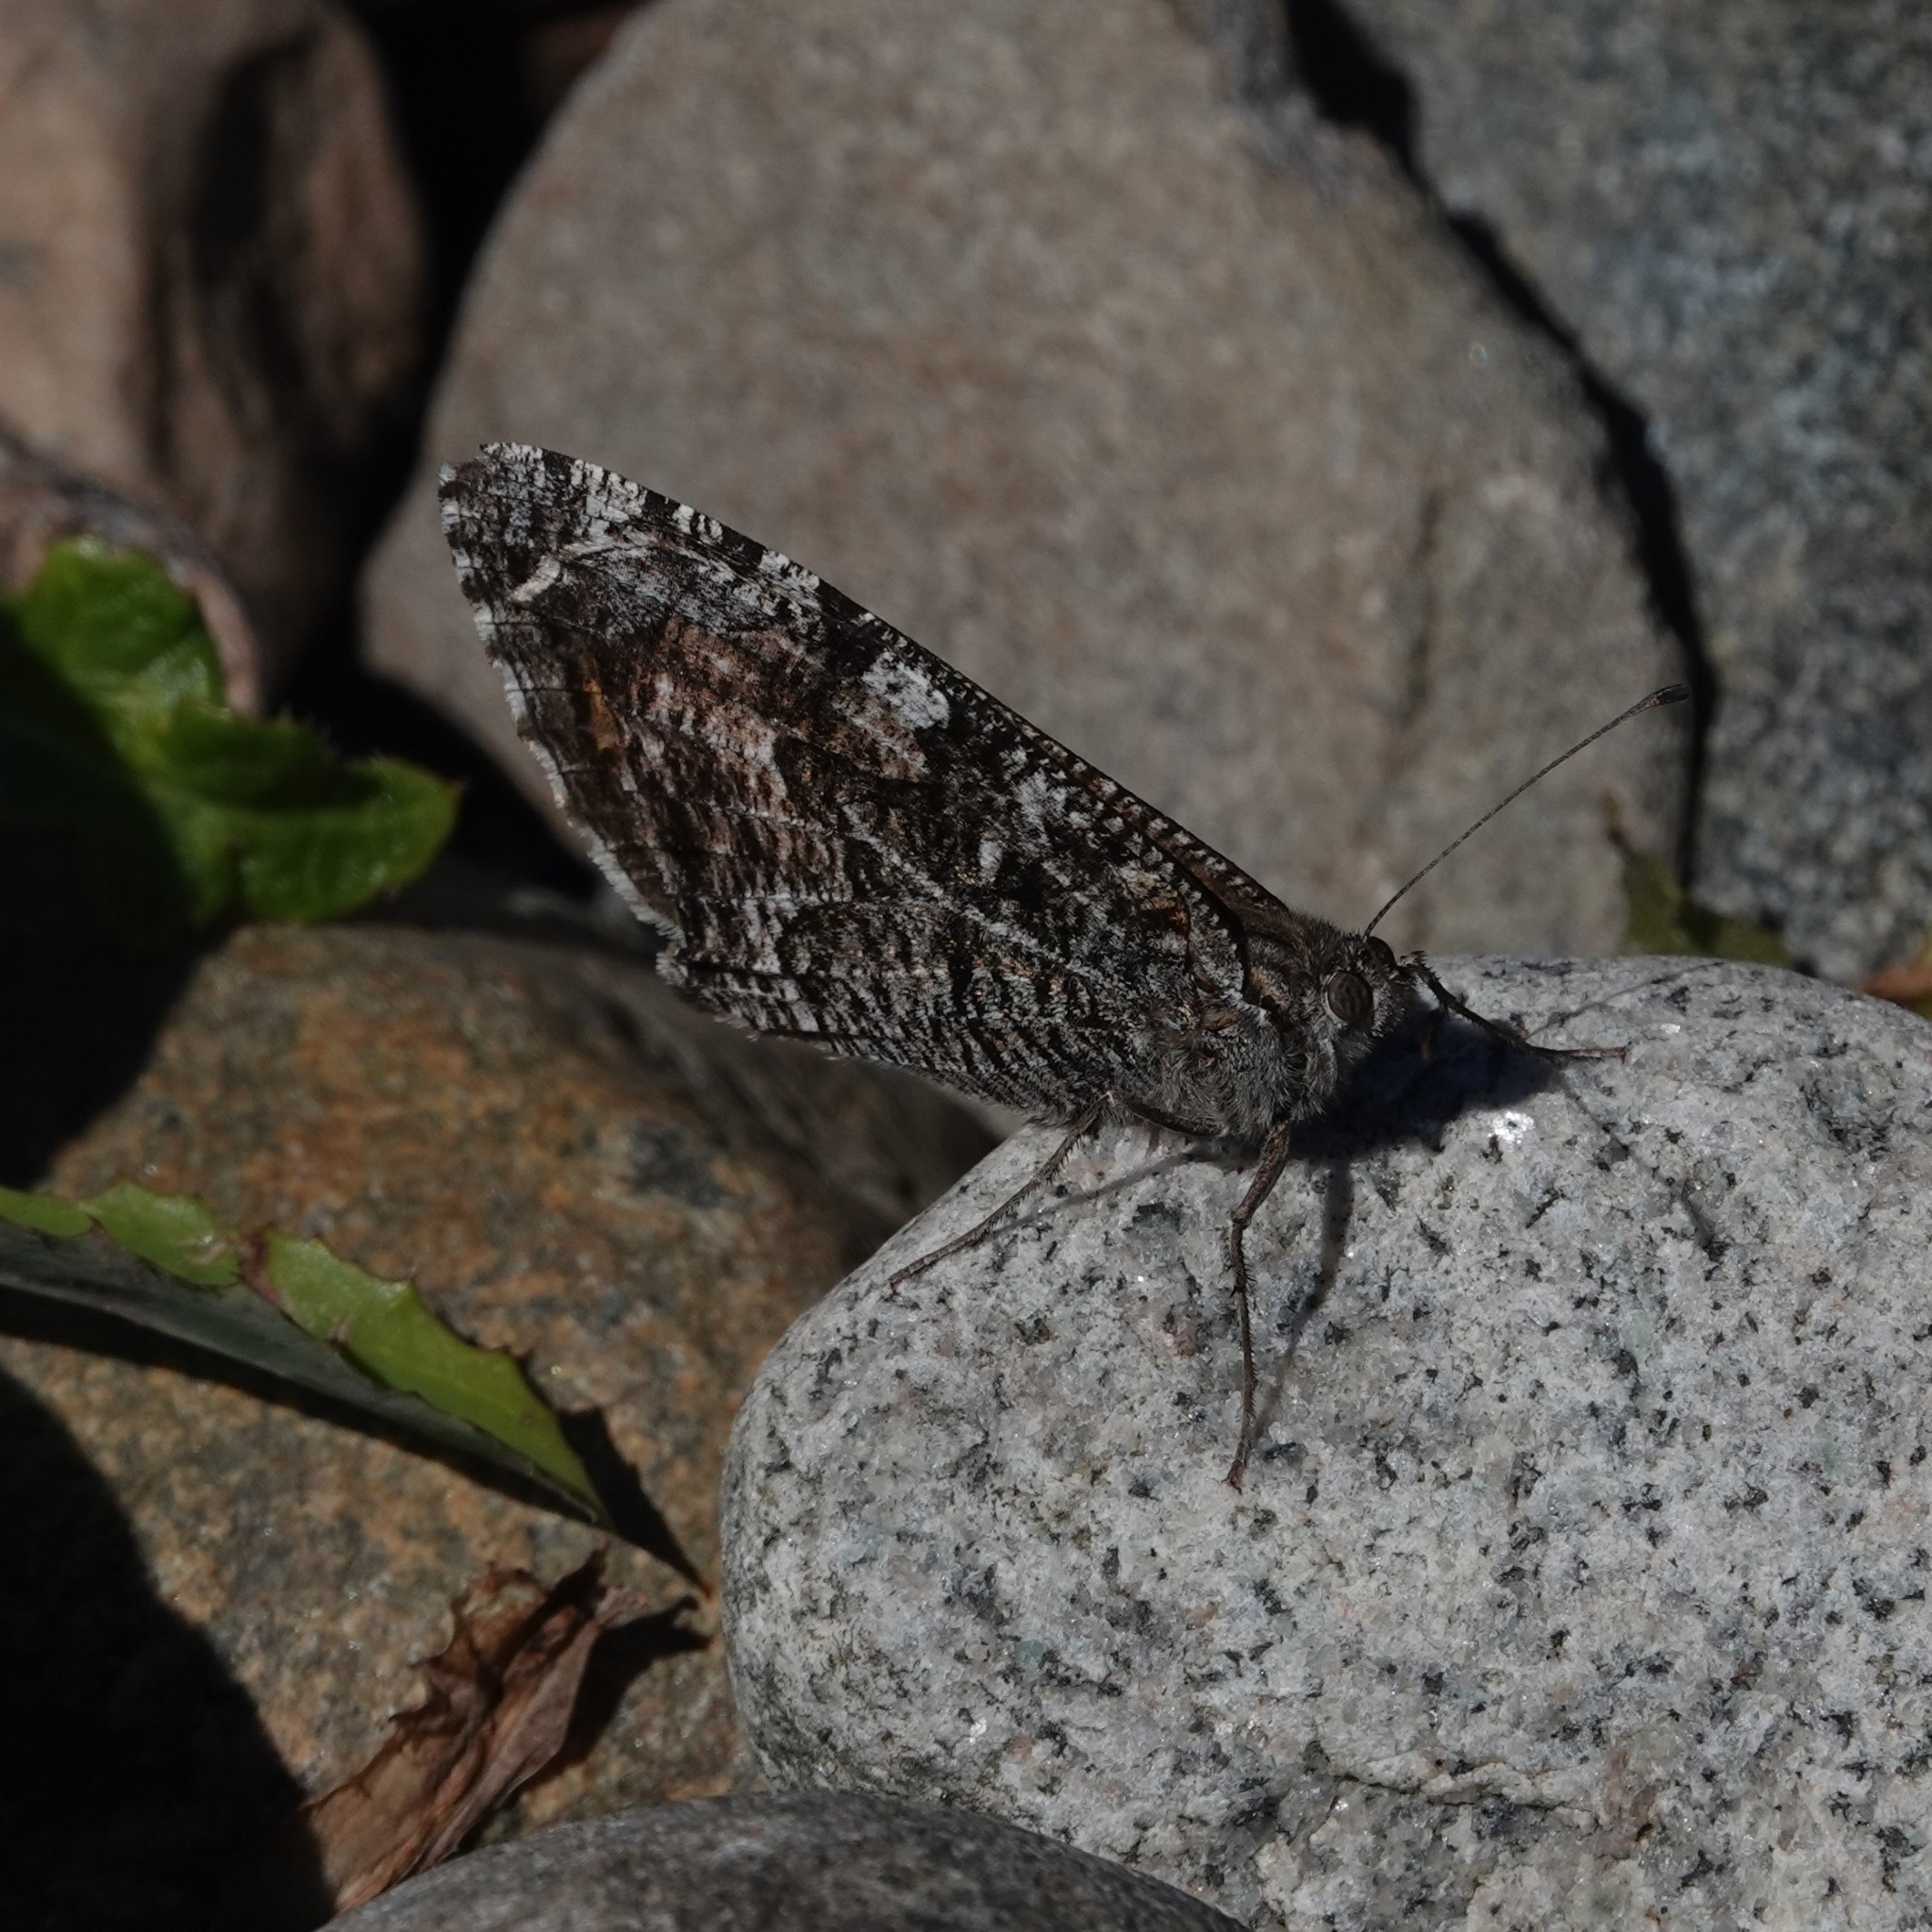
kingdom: Animalia
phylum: Arthropoda
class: Insecta
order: Lepidoptera
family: Nymphalidae
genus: Hipparchia
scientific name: Hipparchia semele
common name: Grayling
